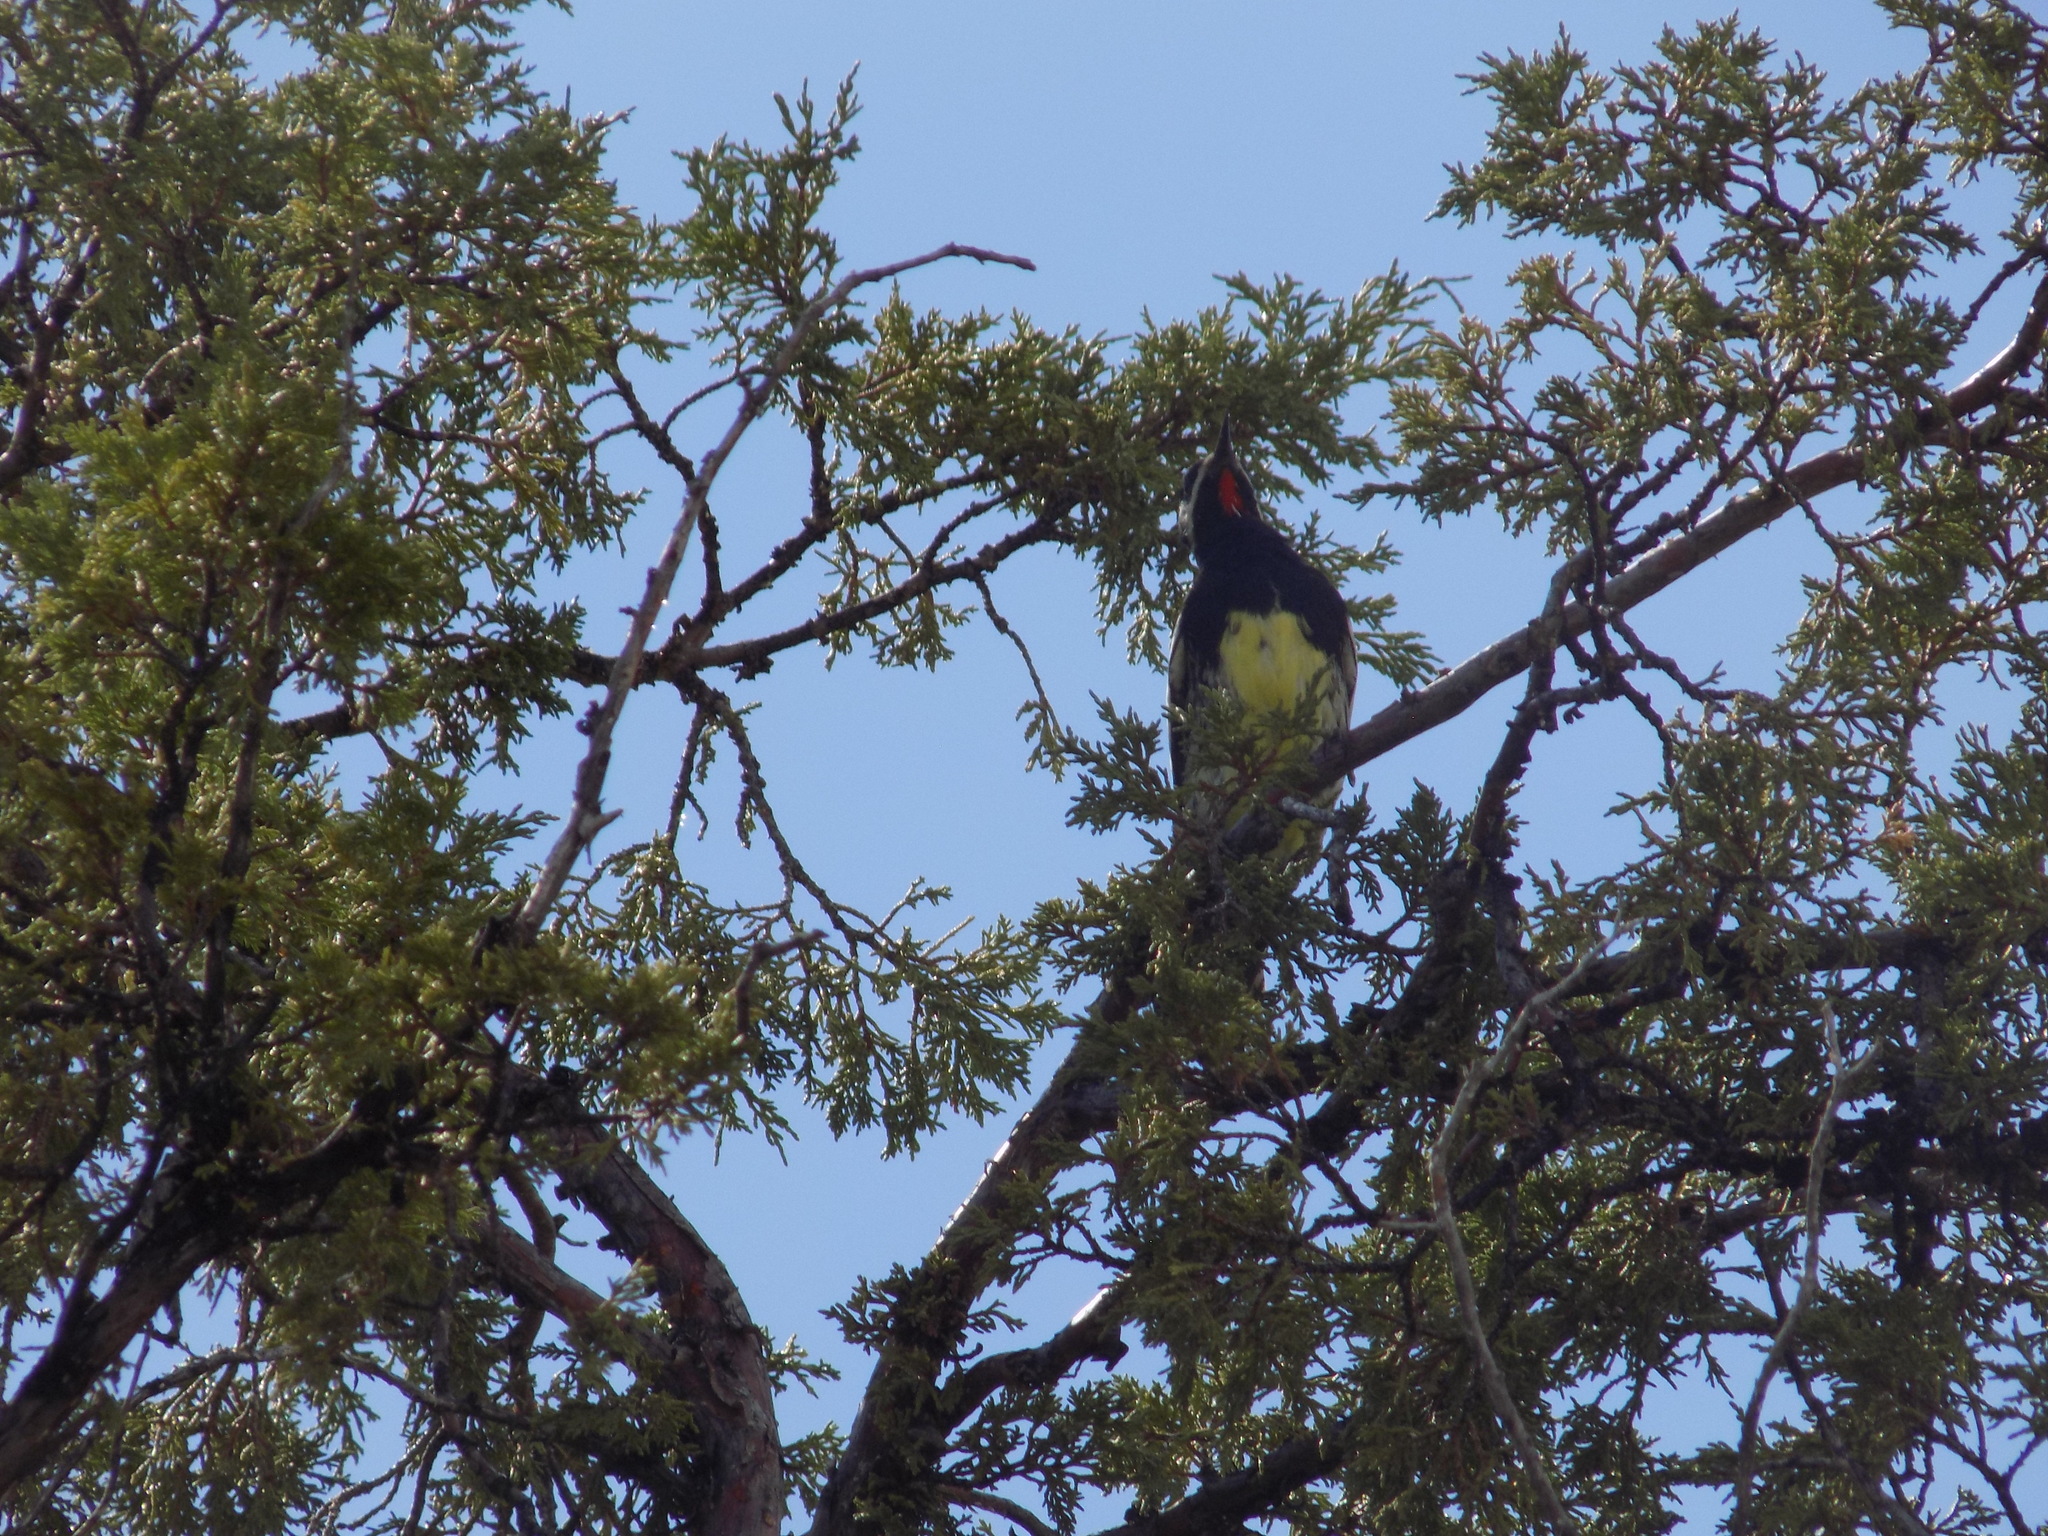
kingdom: Animalia
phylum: Chordata
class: Aves
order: Piciformes
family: Picidae
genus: Sphyrapicus
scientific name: Sphyrapicus thyroideus
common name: Williamson's sapsucker
